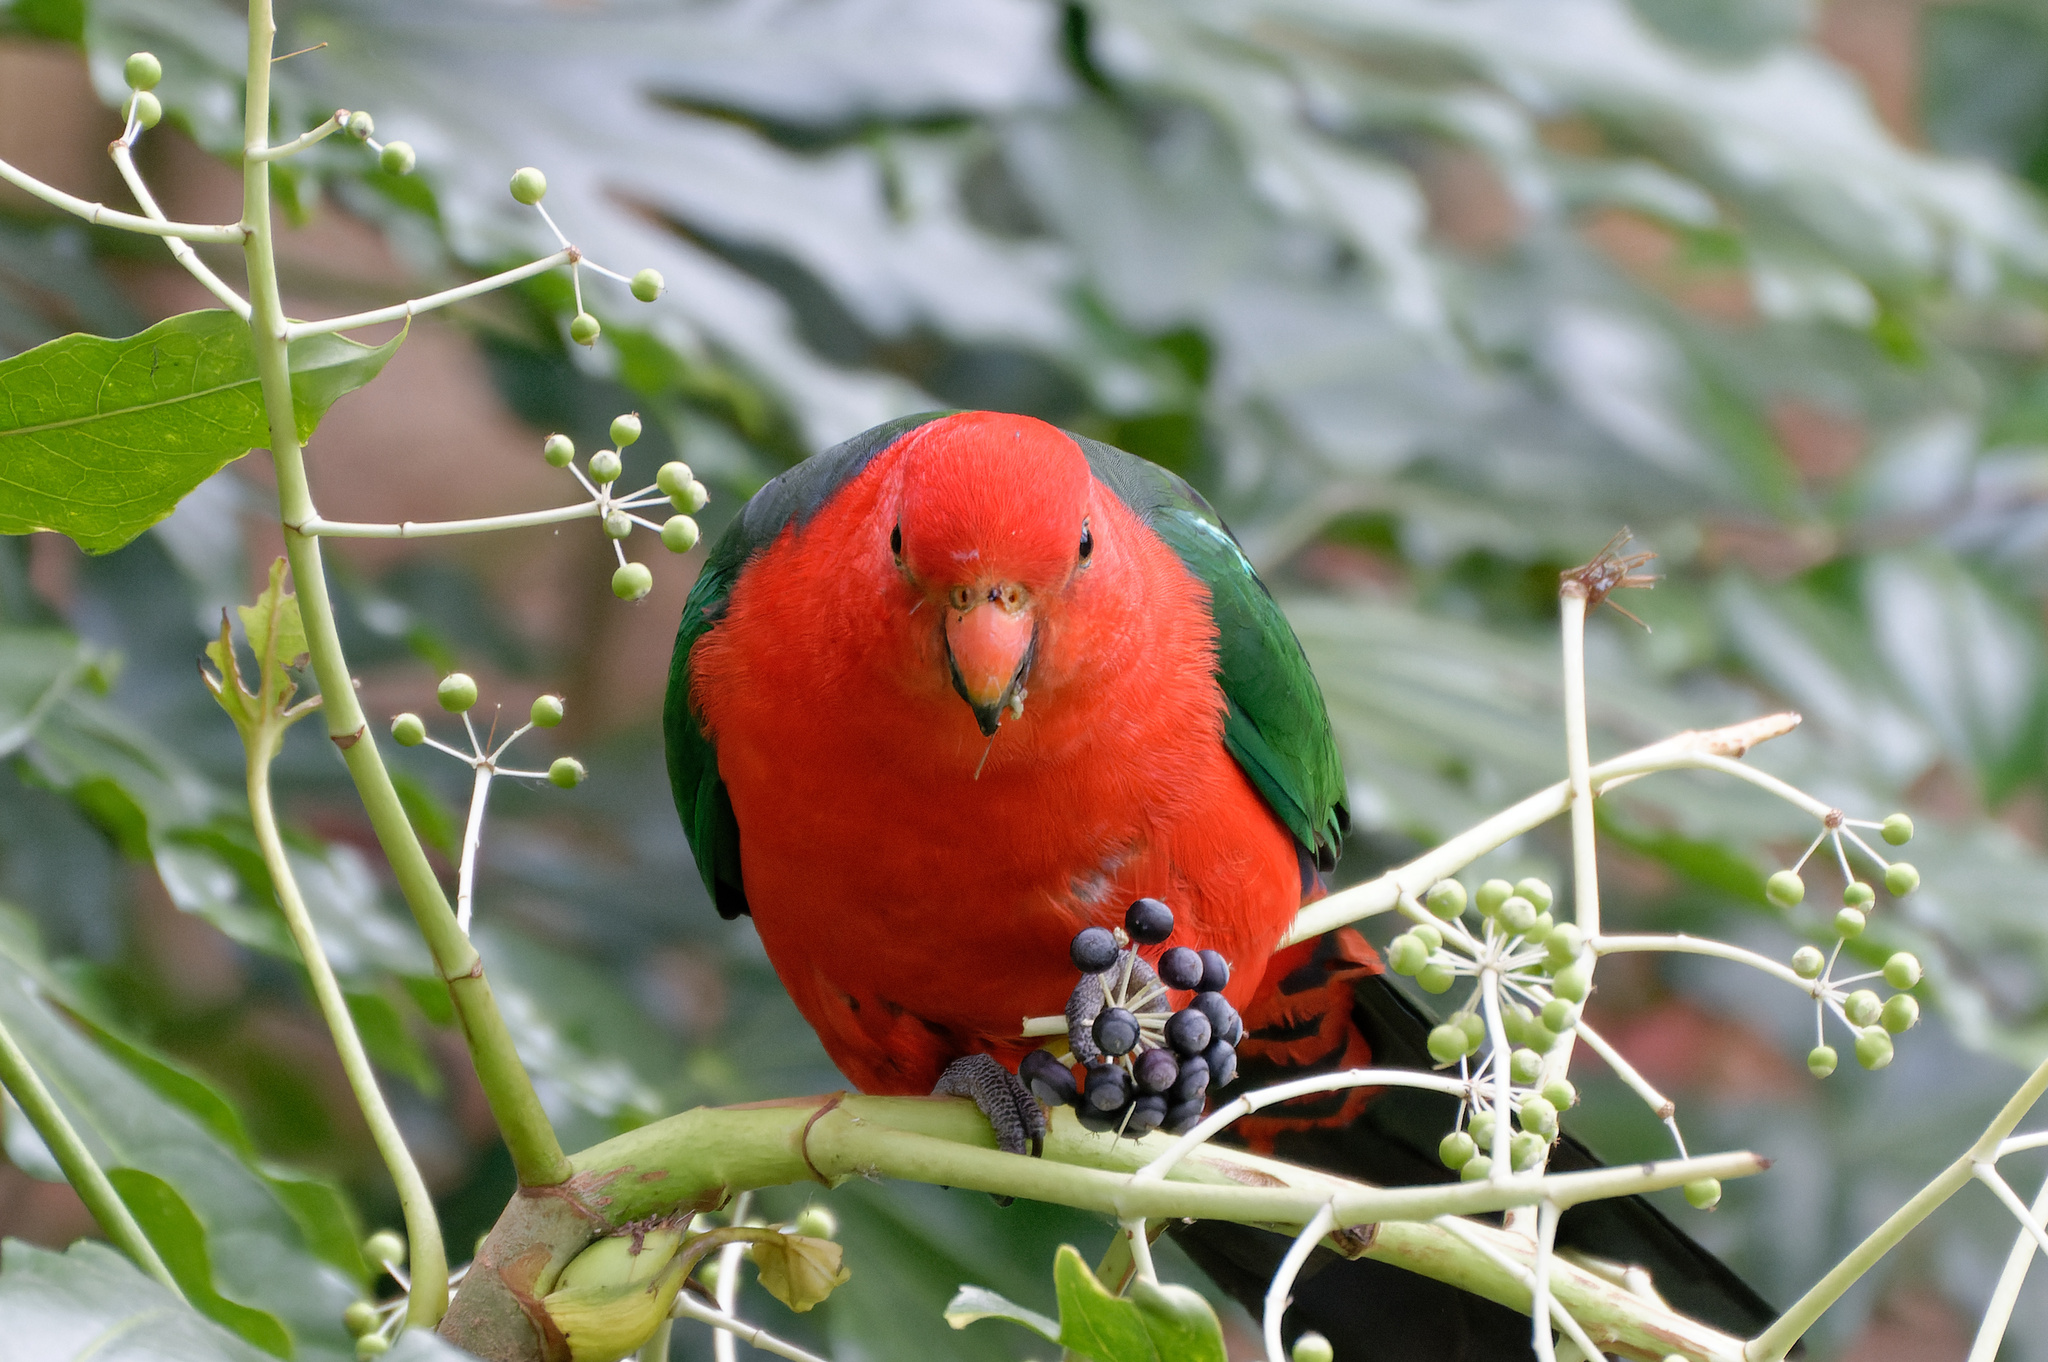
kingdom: Animalia
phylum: Chordata
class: Aves
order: Psittaciformes
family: Psittacidae
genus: Alisterus
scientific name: Alisterus scapularis
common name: Australian king parrot
